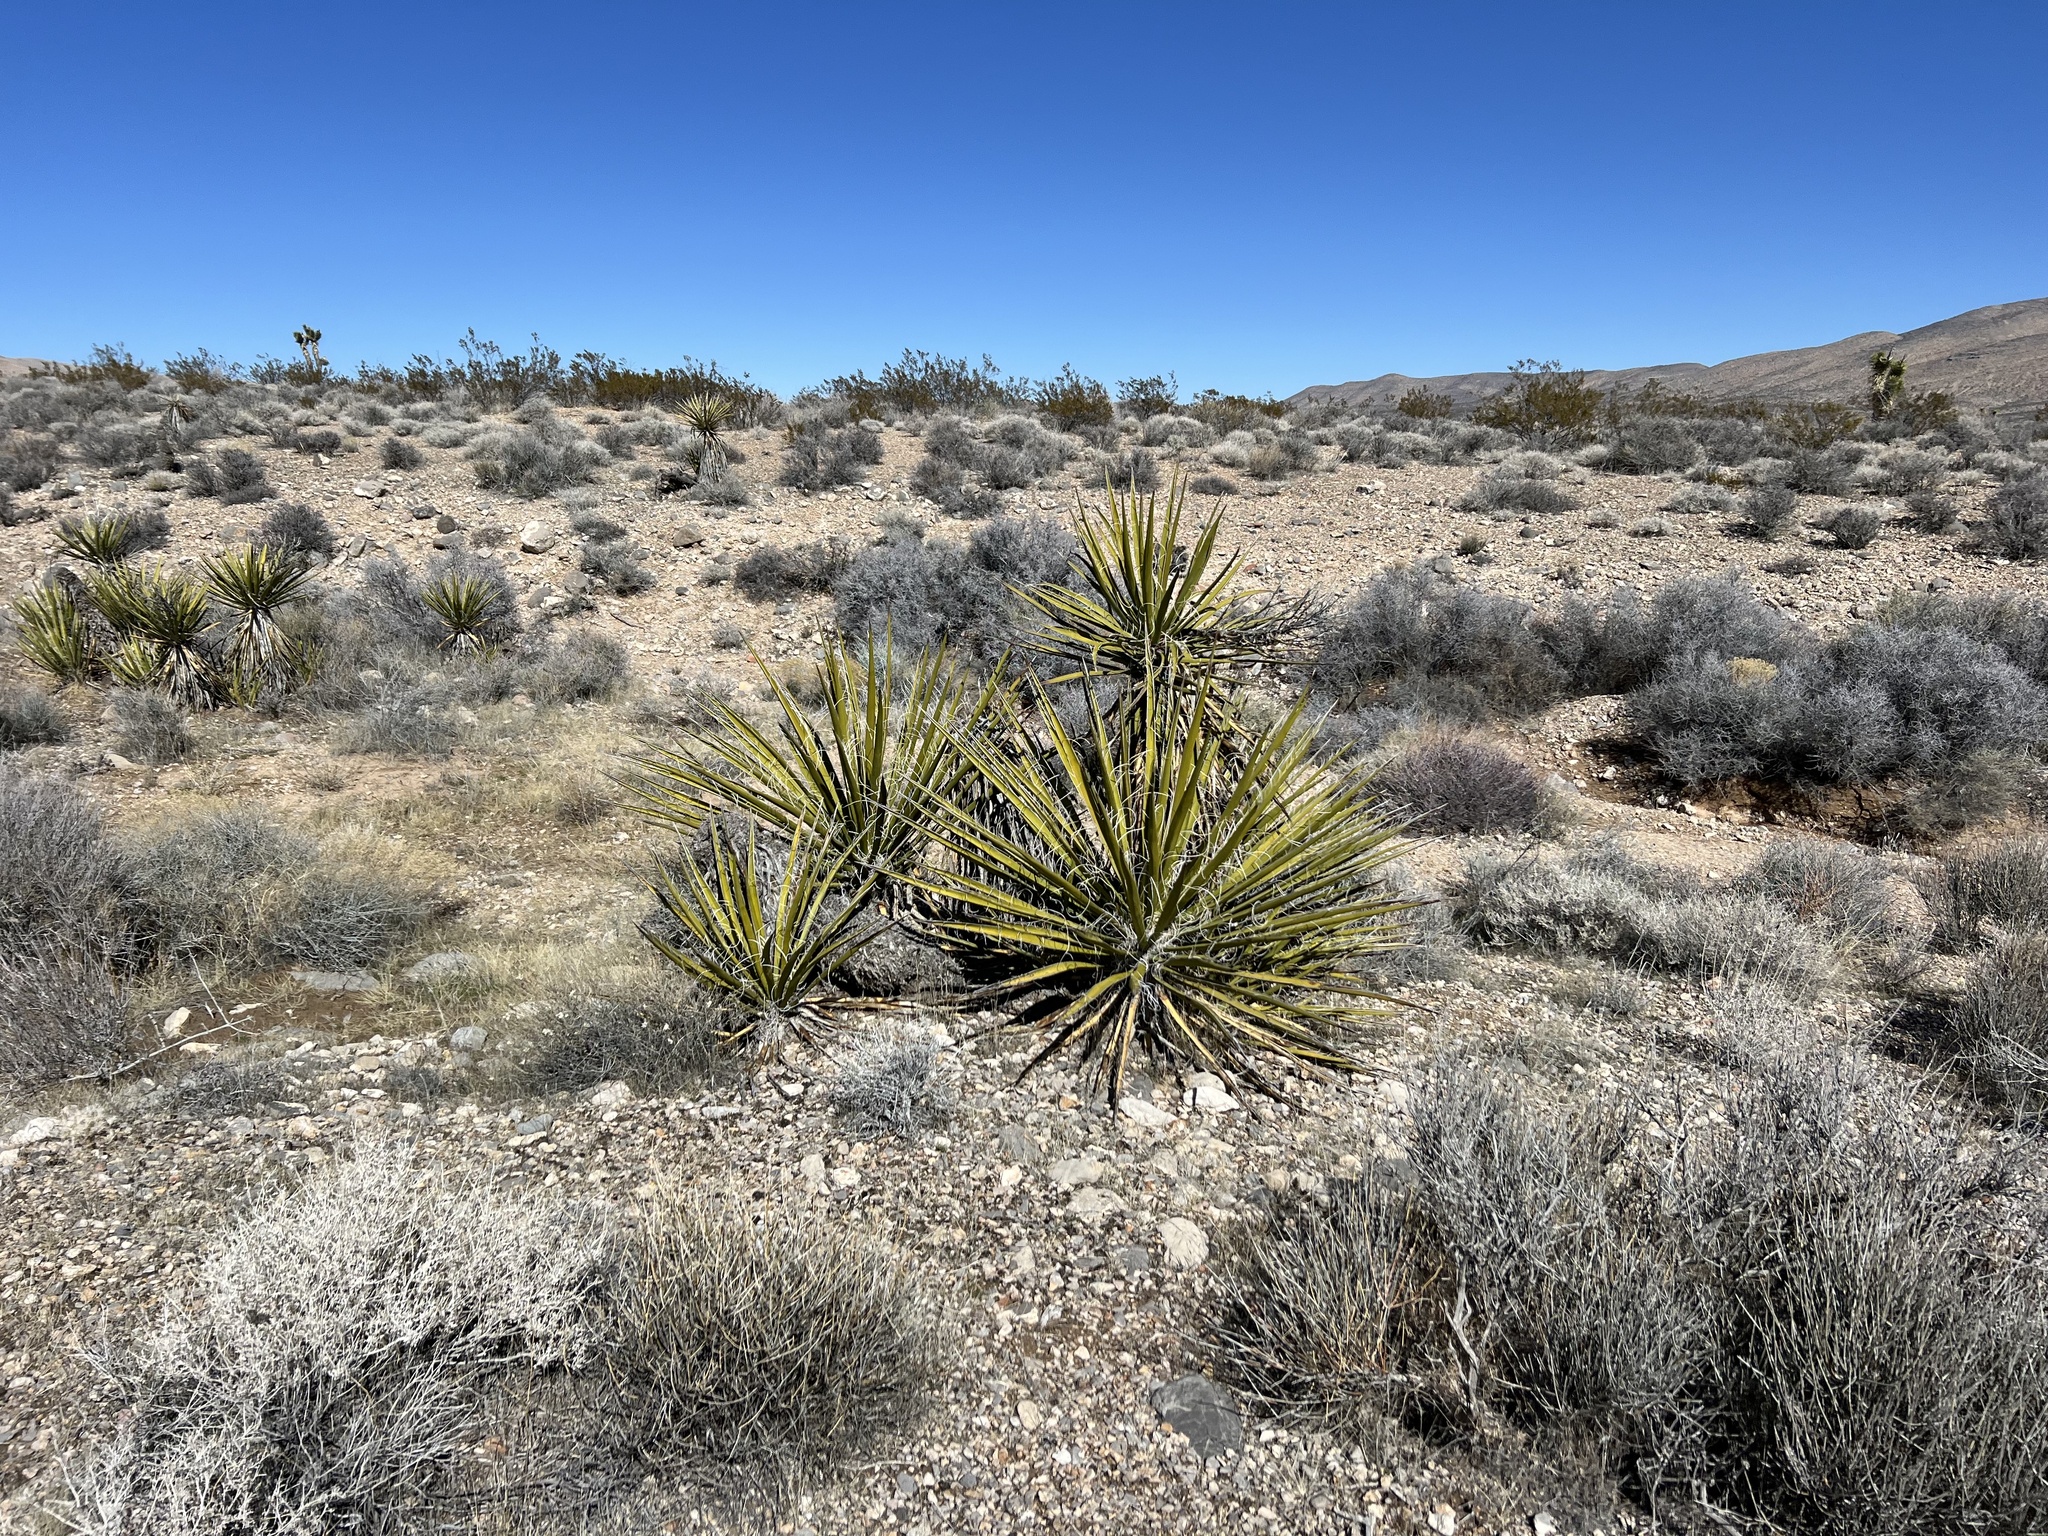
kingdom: Plantae
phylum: Tracheophyta
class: Liliopsida
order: Asparagales
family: Asparagaceae
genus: Yucca
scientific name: Yucca schidigera
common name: Mojave yucca
